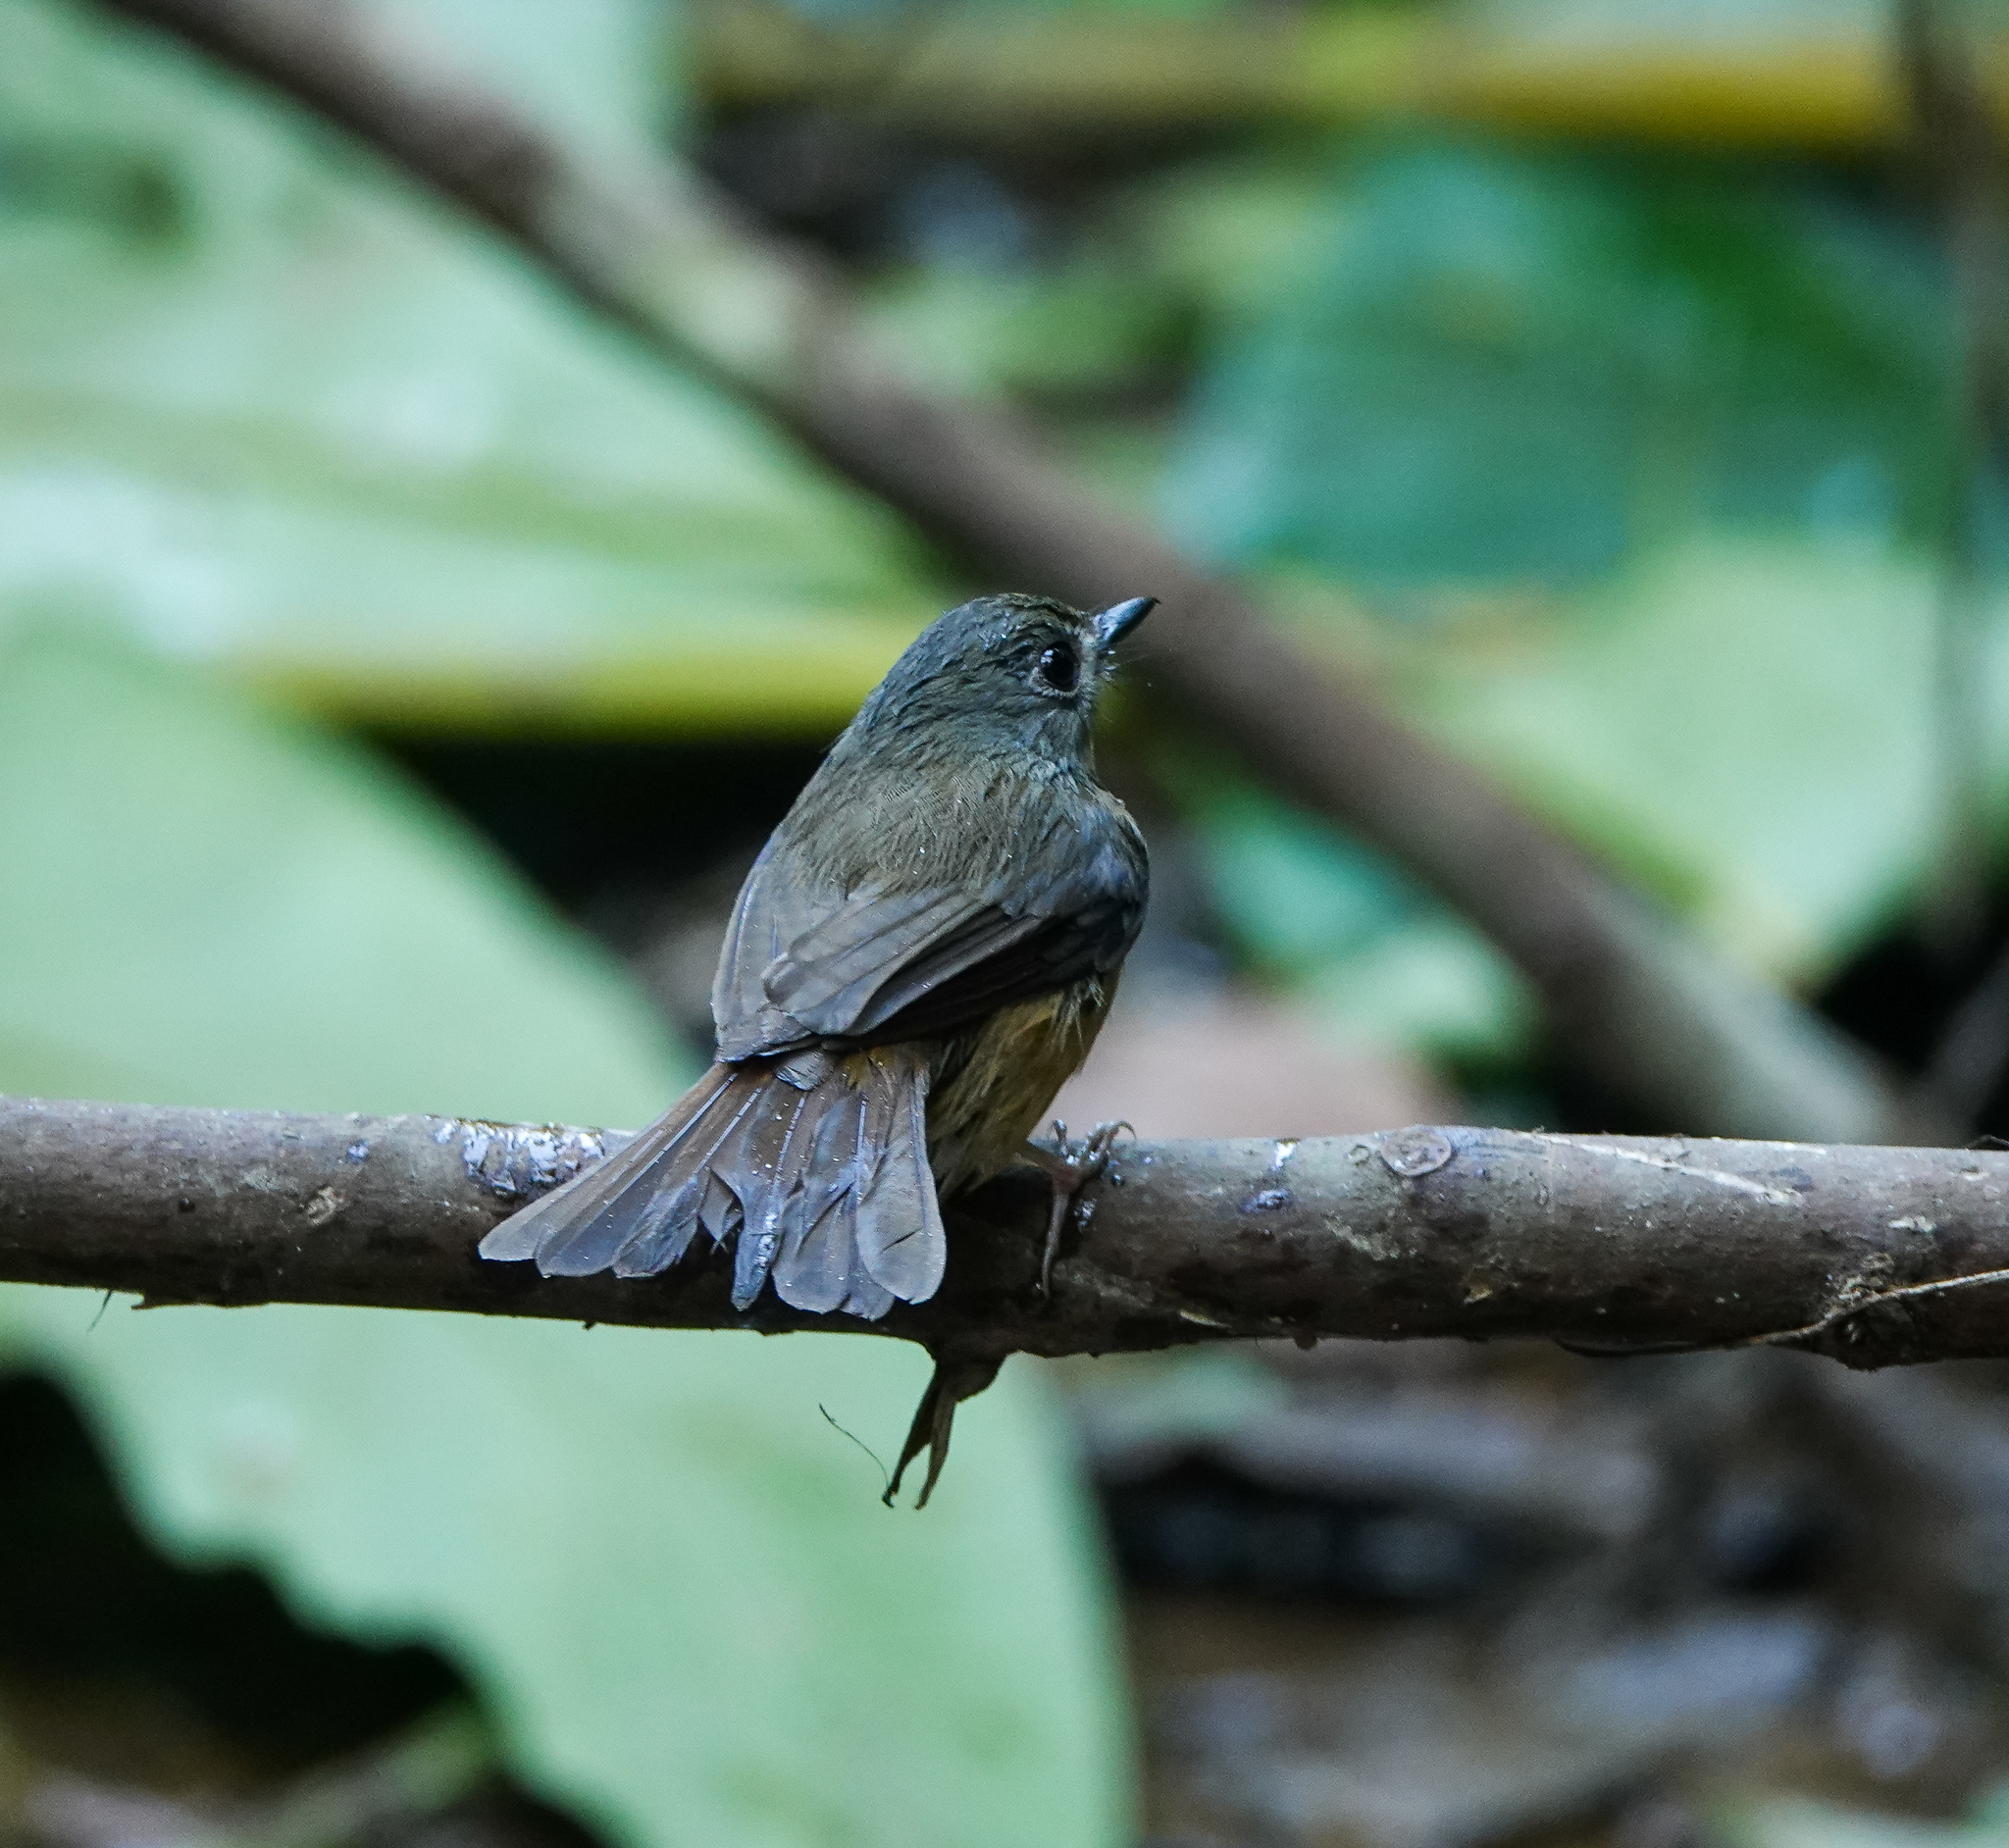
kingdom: Animalia
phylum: Chordata
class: Aves
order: Passeriformes
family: Muscicapidae
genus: Cyornis
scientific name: Cyornis poliogenys
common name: Pale-chinned blue flycatcher
